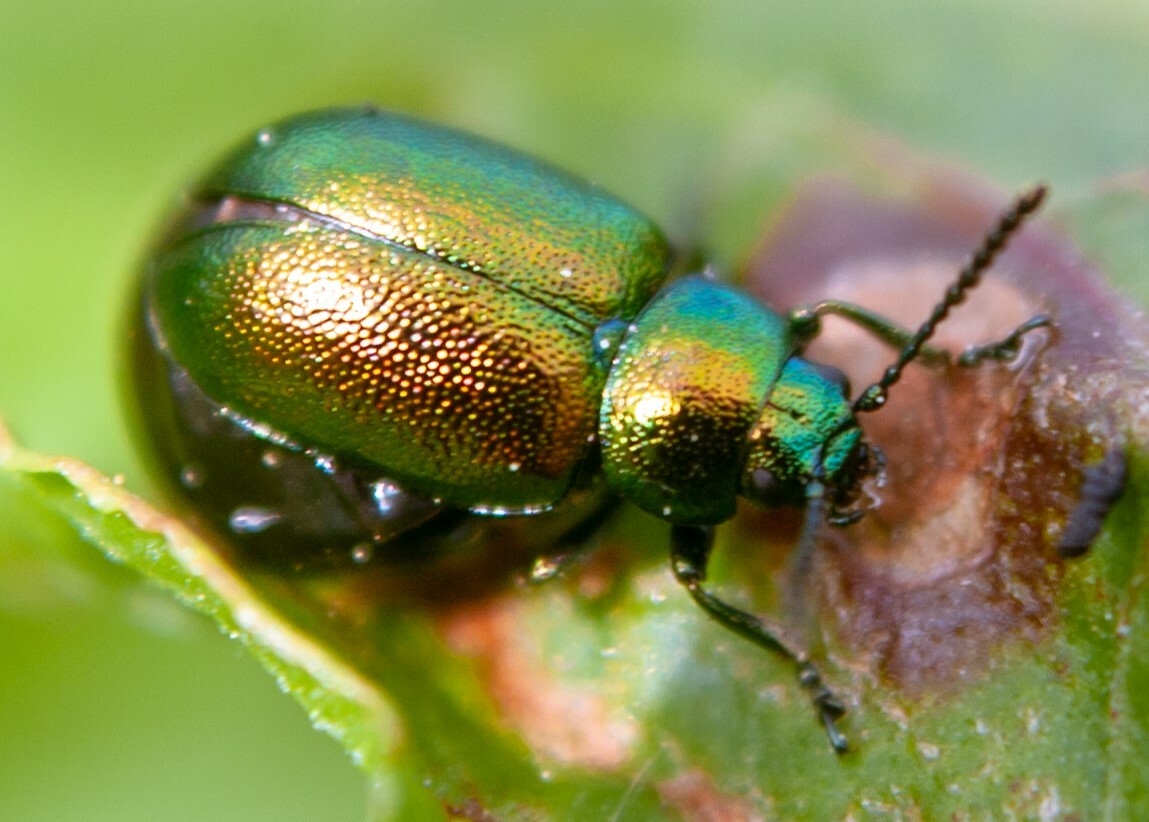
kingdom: Animalia
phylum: Arthropoda
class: Insecta
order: Coleoptera
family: Chrysomelidae
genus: Gastrophysa
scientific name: Gastrophysa viridula
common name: Green dock beetle
